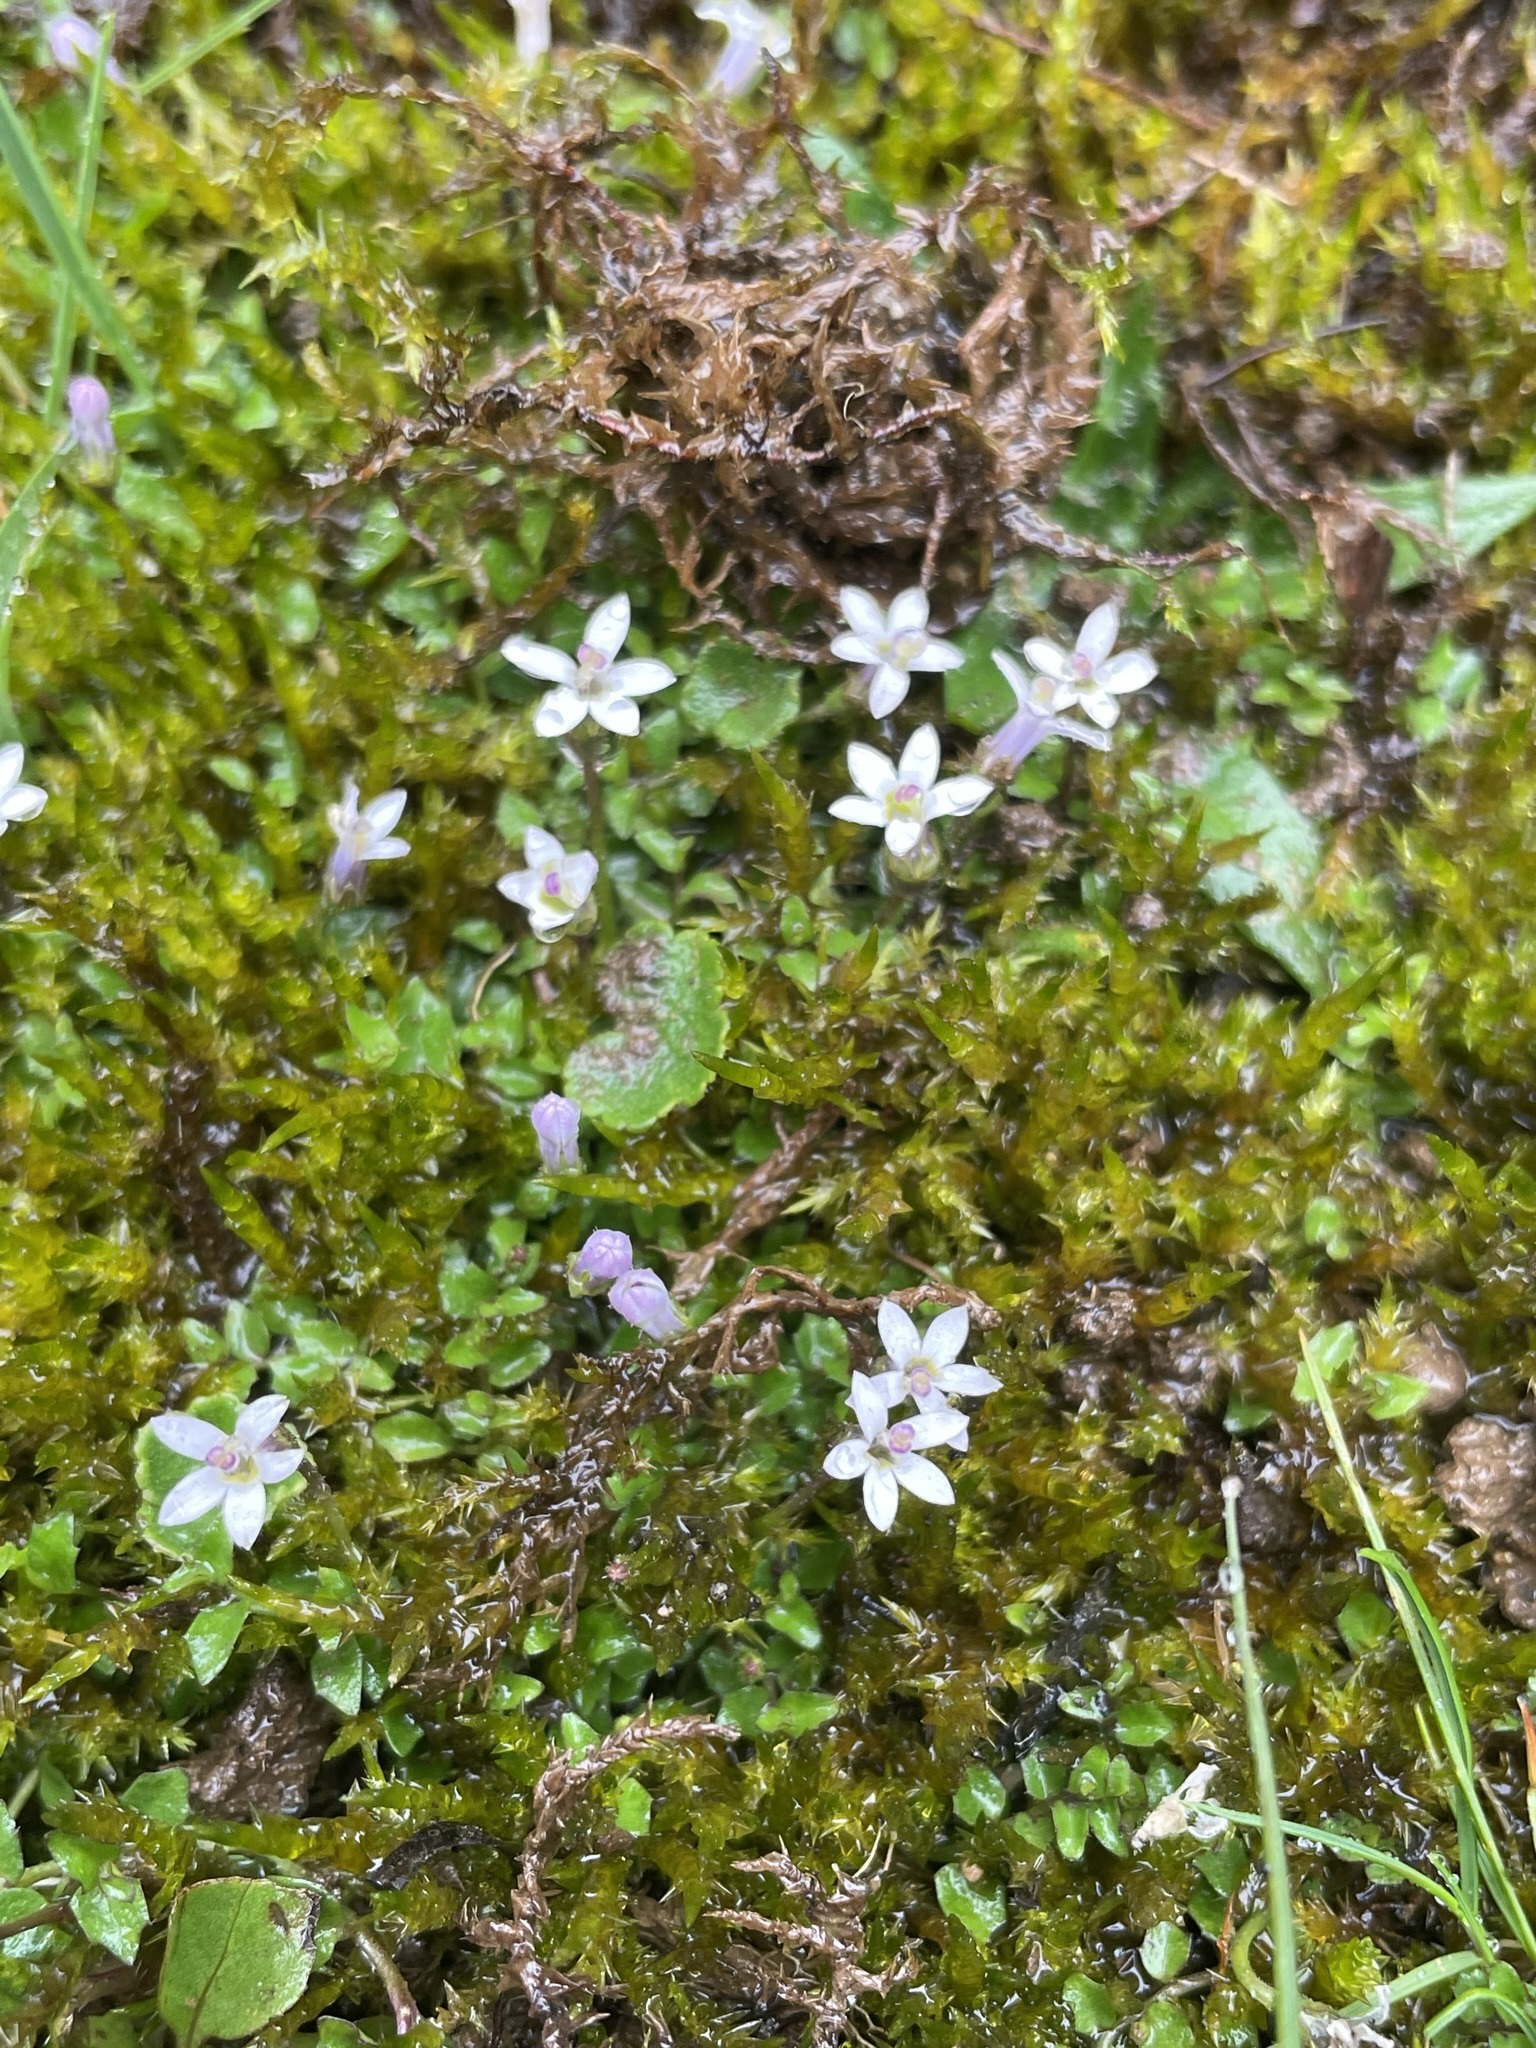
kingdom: Plantae
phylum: Tracheophyta
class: Magnoliopsida
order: Asterales
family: Campanulaceae
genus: Lobelia
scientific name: Lobelia pedunculata
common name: Matted pratia
